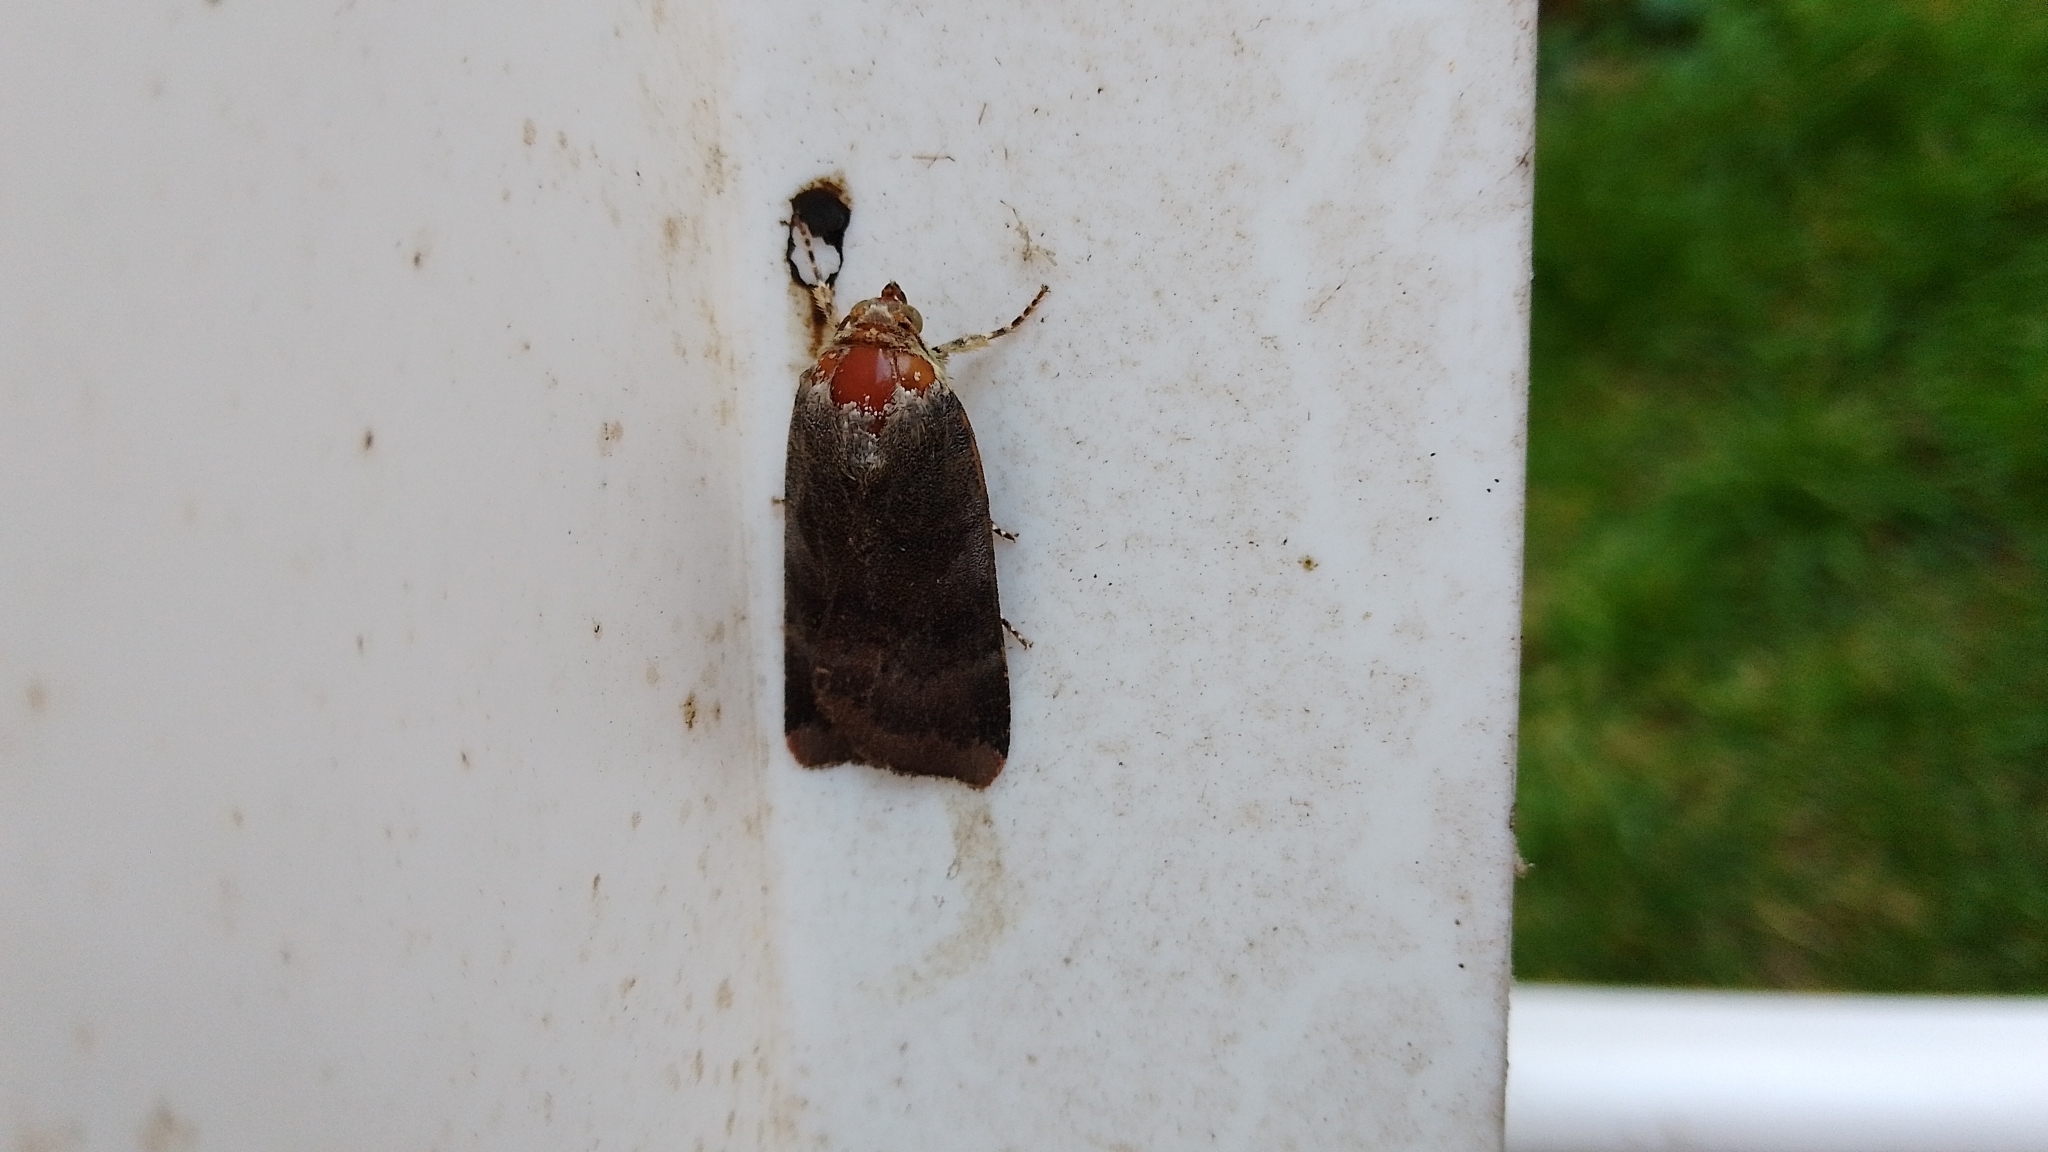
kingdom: Animalia
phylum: Arthropoda
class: Insecta
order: Lepidoptera
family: Noctuidae
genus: Noctua
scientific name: Noctua janthe
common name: Lesser broad-bordered yellow underwing
